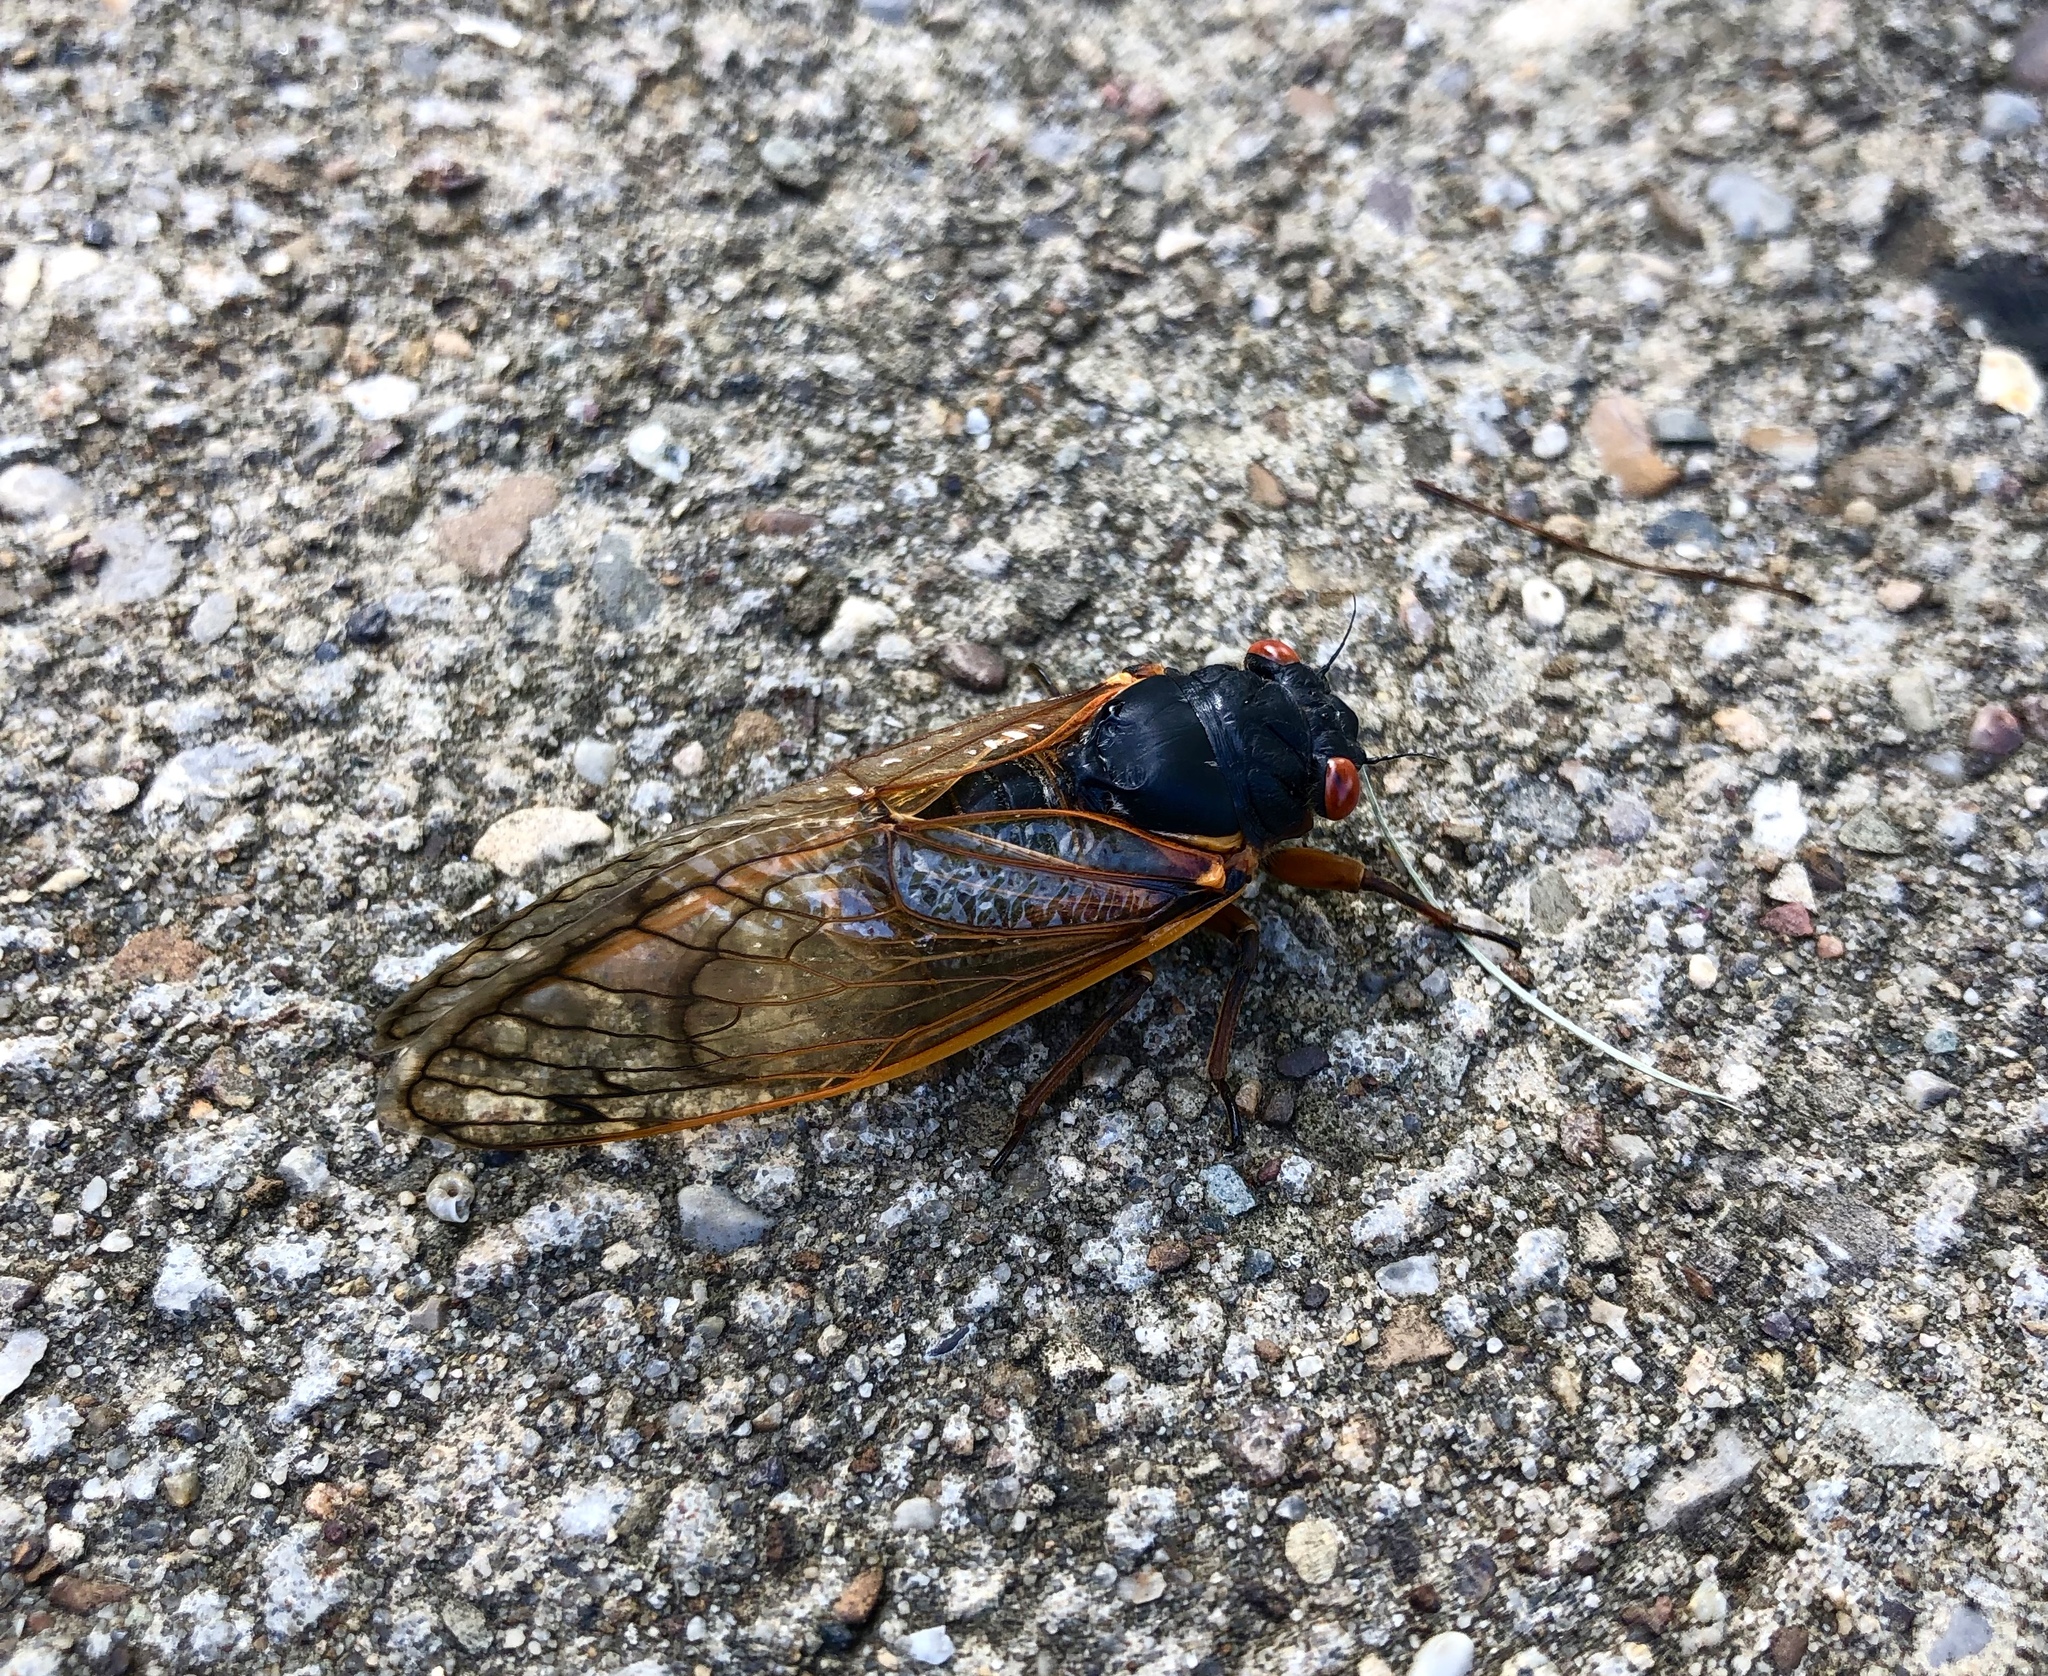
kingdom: Fungi
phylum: Entomophthoromycota
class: Entomophthoromycetes
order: Entomophthorales
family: Entomophthoraceae
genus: Massospora
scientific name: Massospora cicadina
